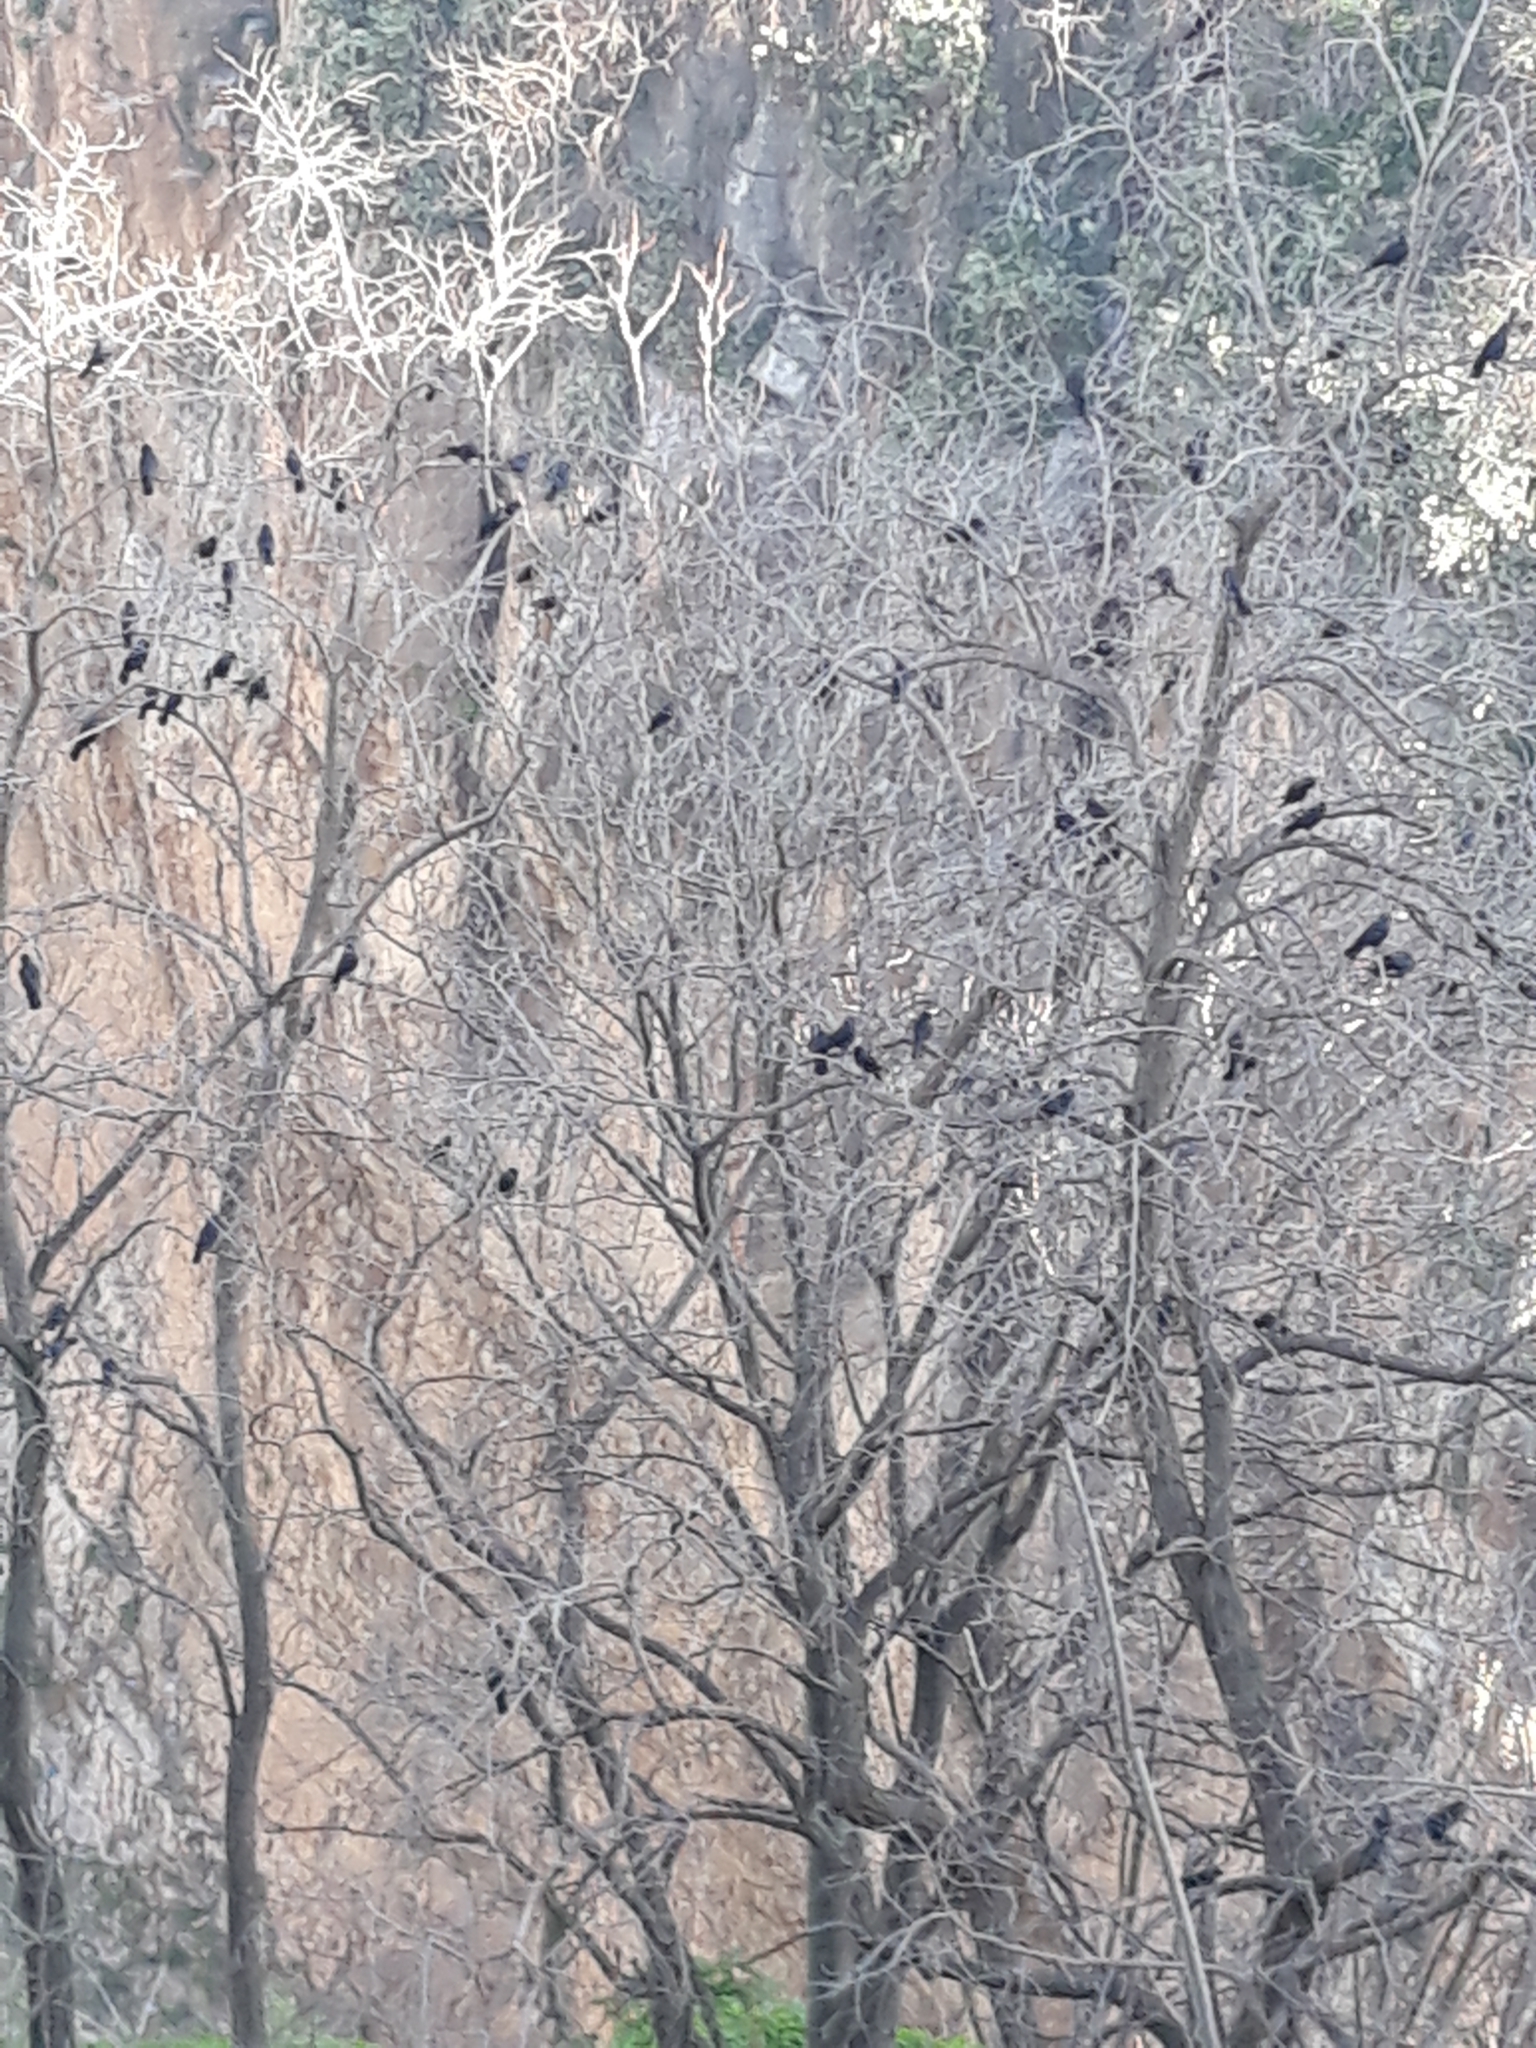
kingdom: Animalia
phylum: Chordata
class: Aves
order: Passeriformes
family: Corvidae
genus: Coloeus
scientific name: Coloeus monedula
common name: Western jackdaw
